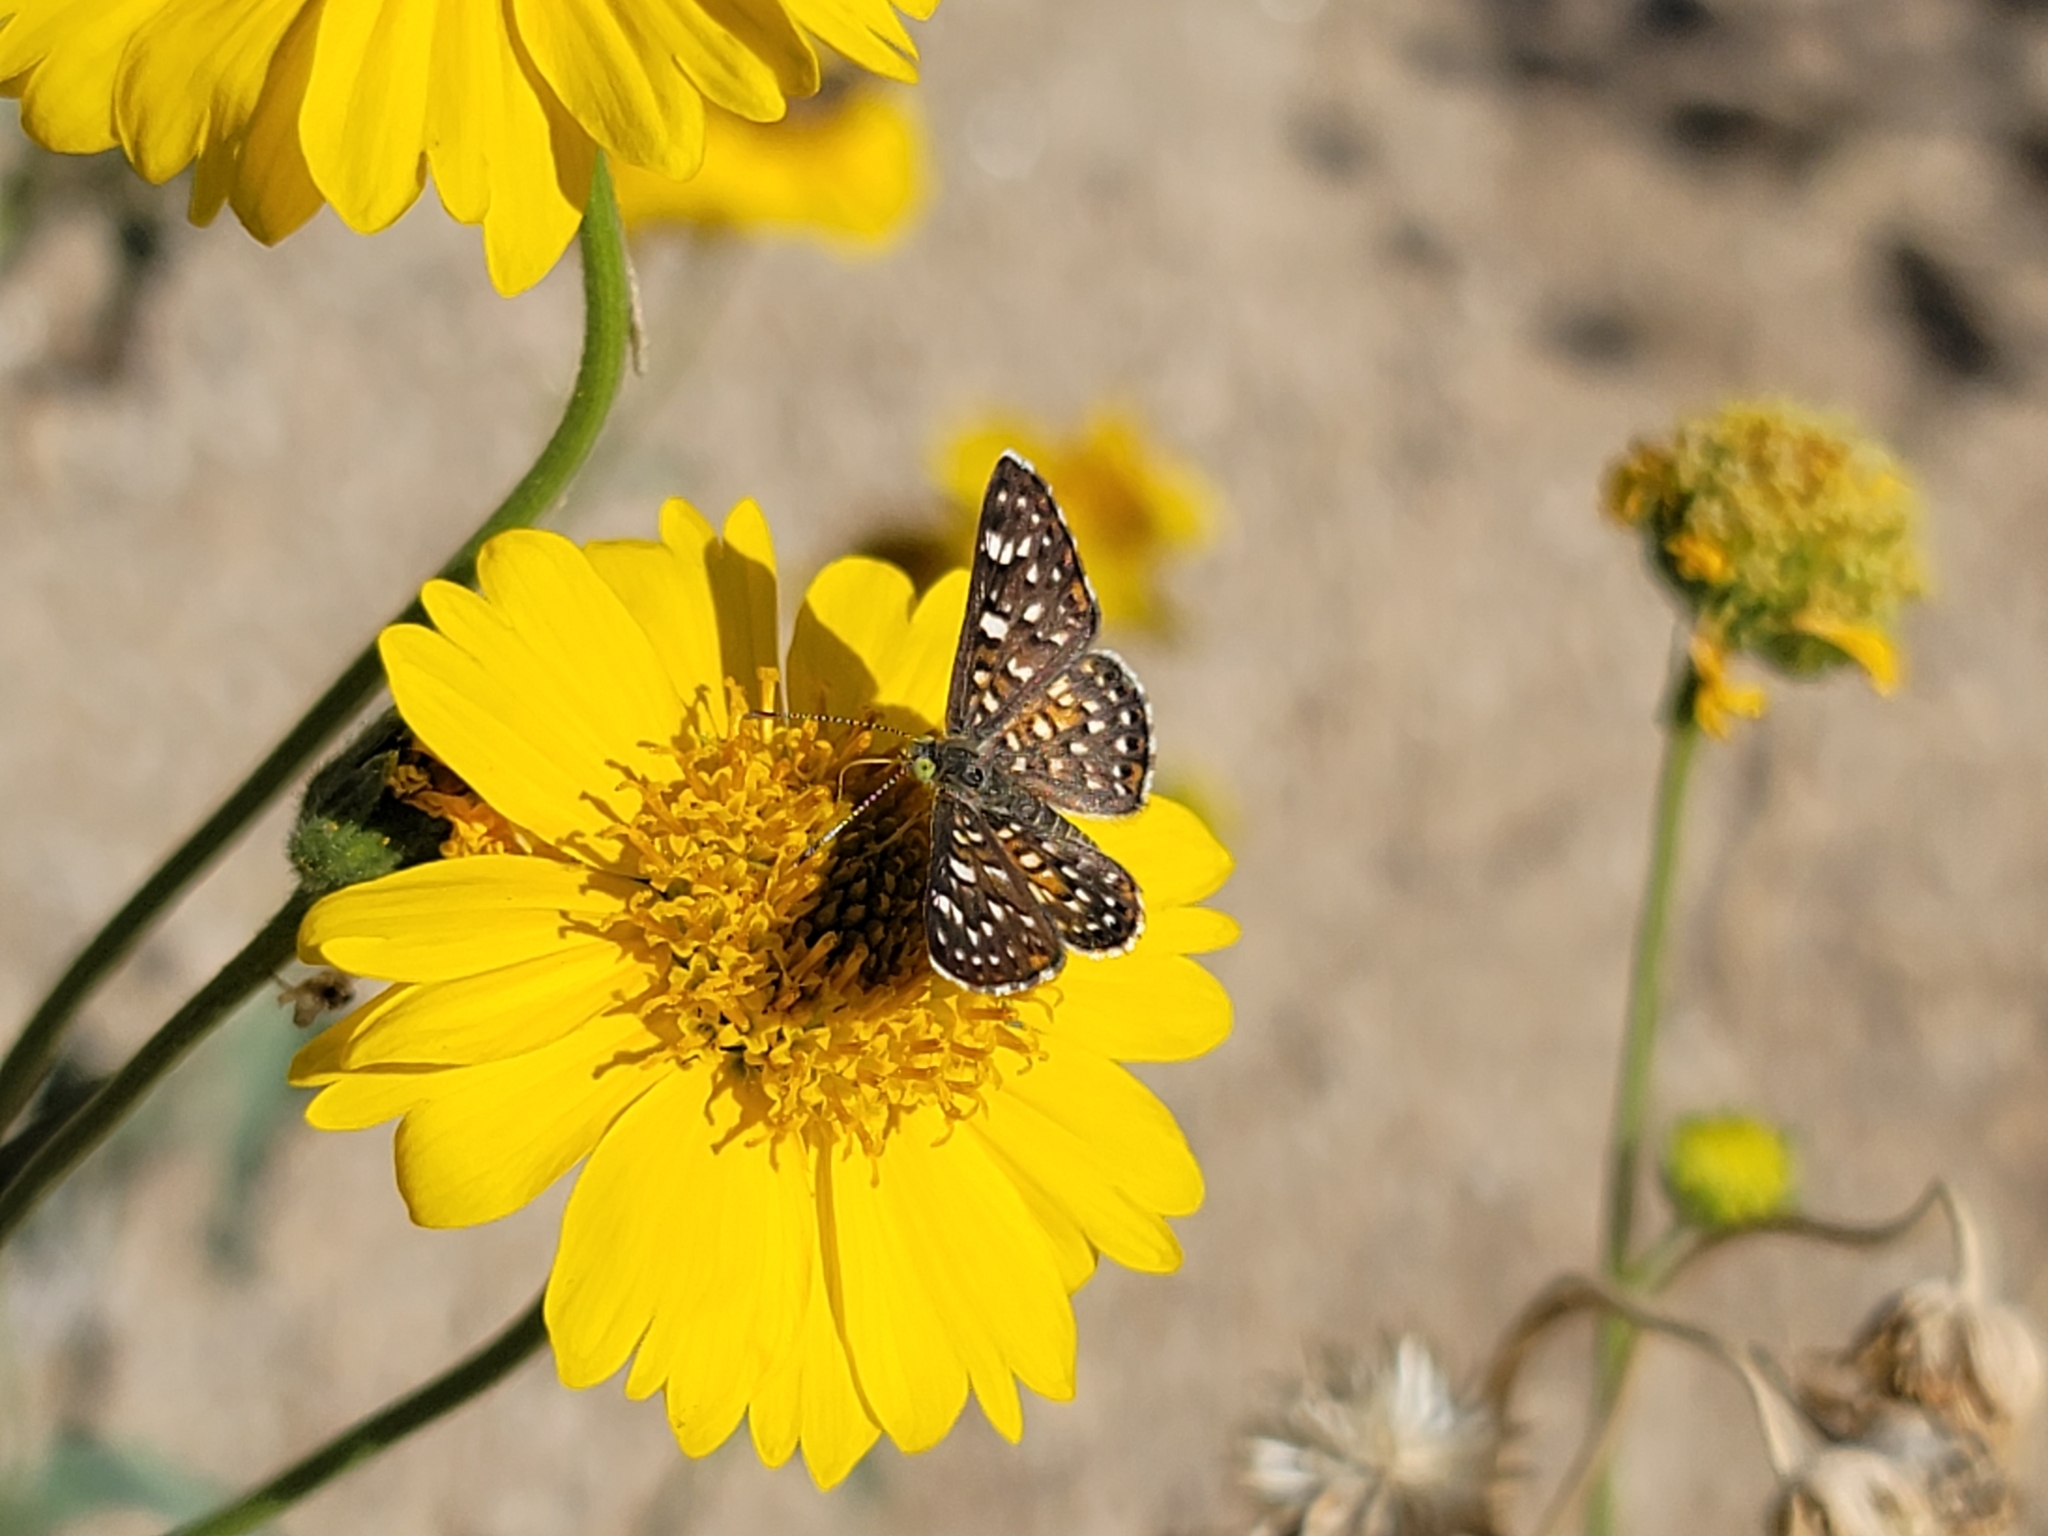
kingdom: Animalia
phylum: Arthropoda
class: Insecta
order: Lepidoptera
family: Riodinidae
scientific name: Riodinidae
